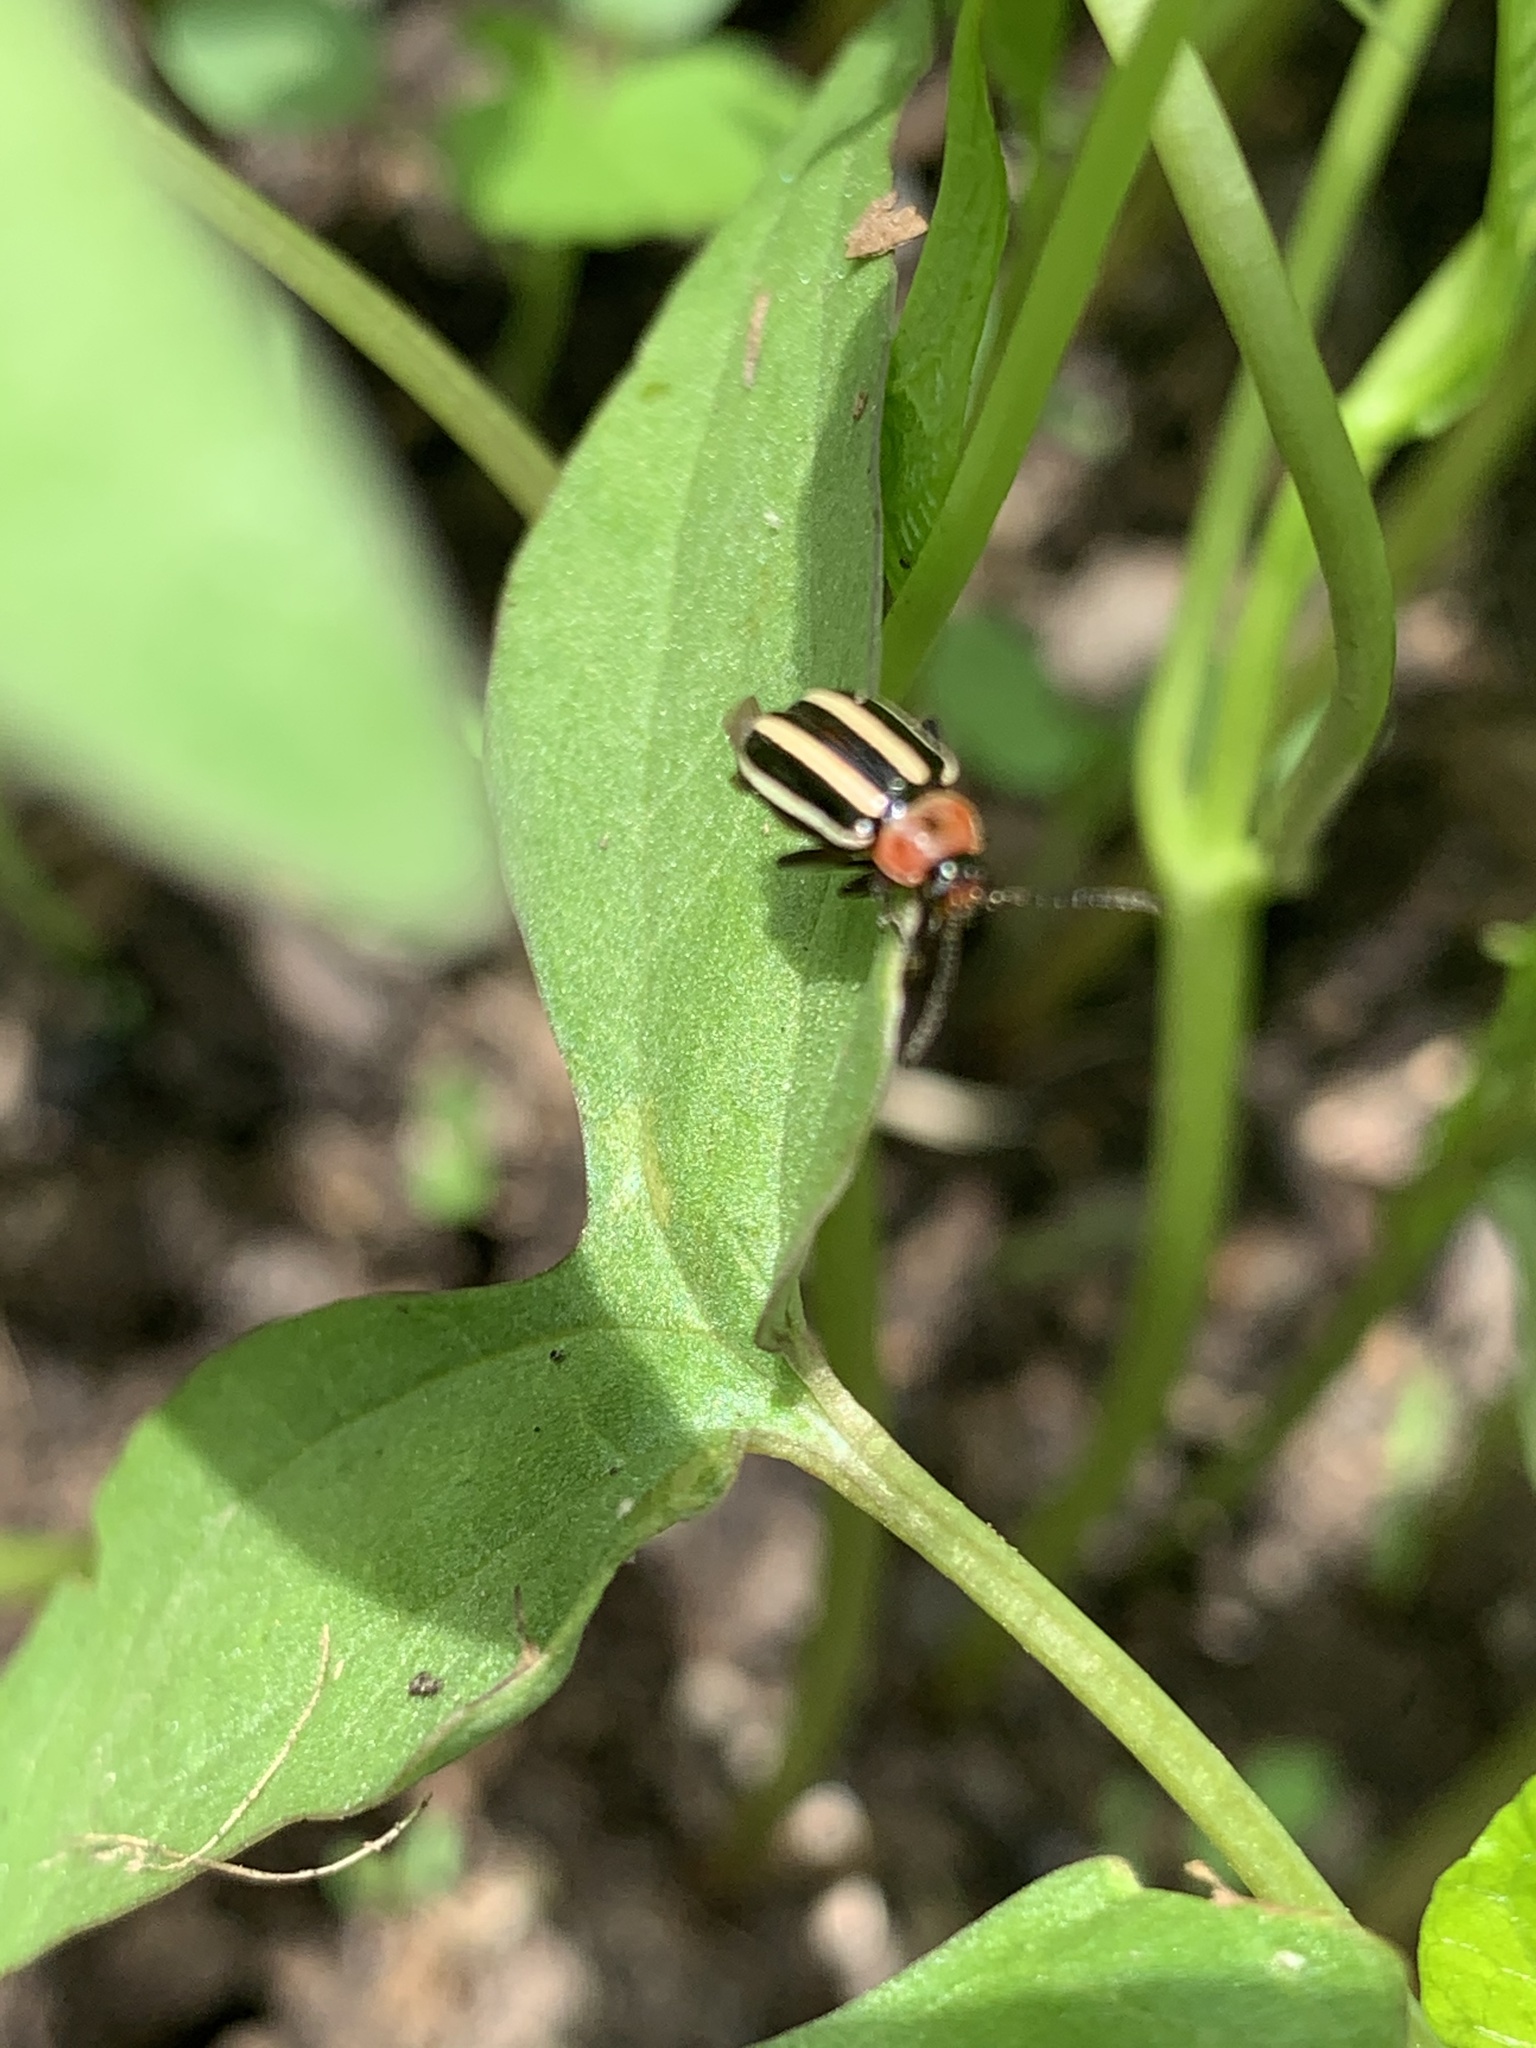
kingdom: Animalia
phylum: Arthropoda
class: Insecta
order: Coleoptera
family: Chrysomelidae
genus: Disonycha
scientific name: Disonycha glabrata
